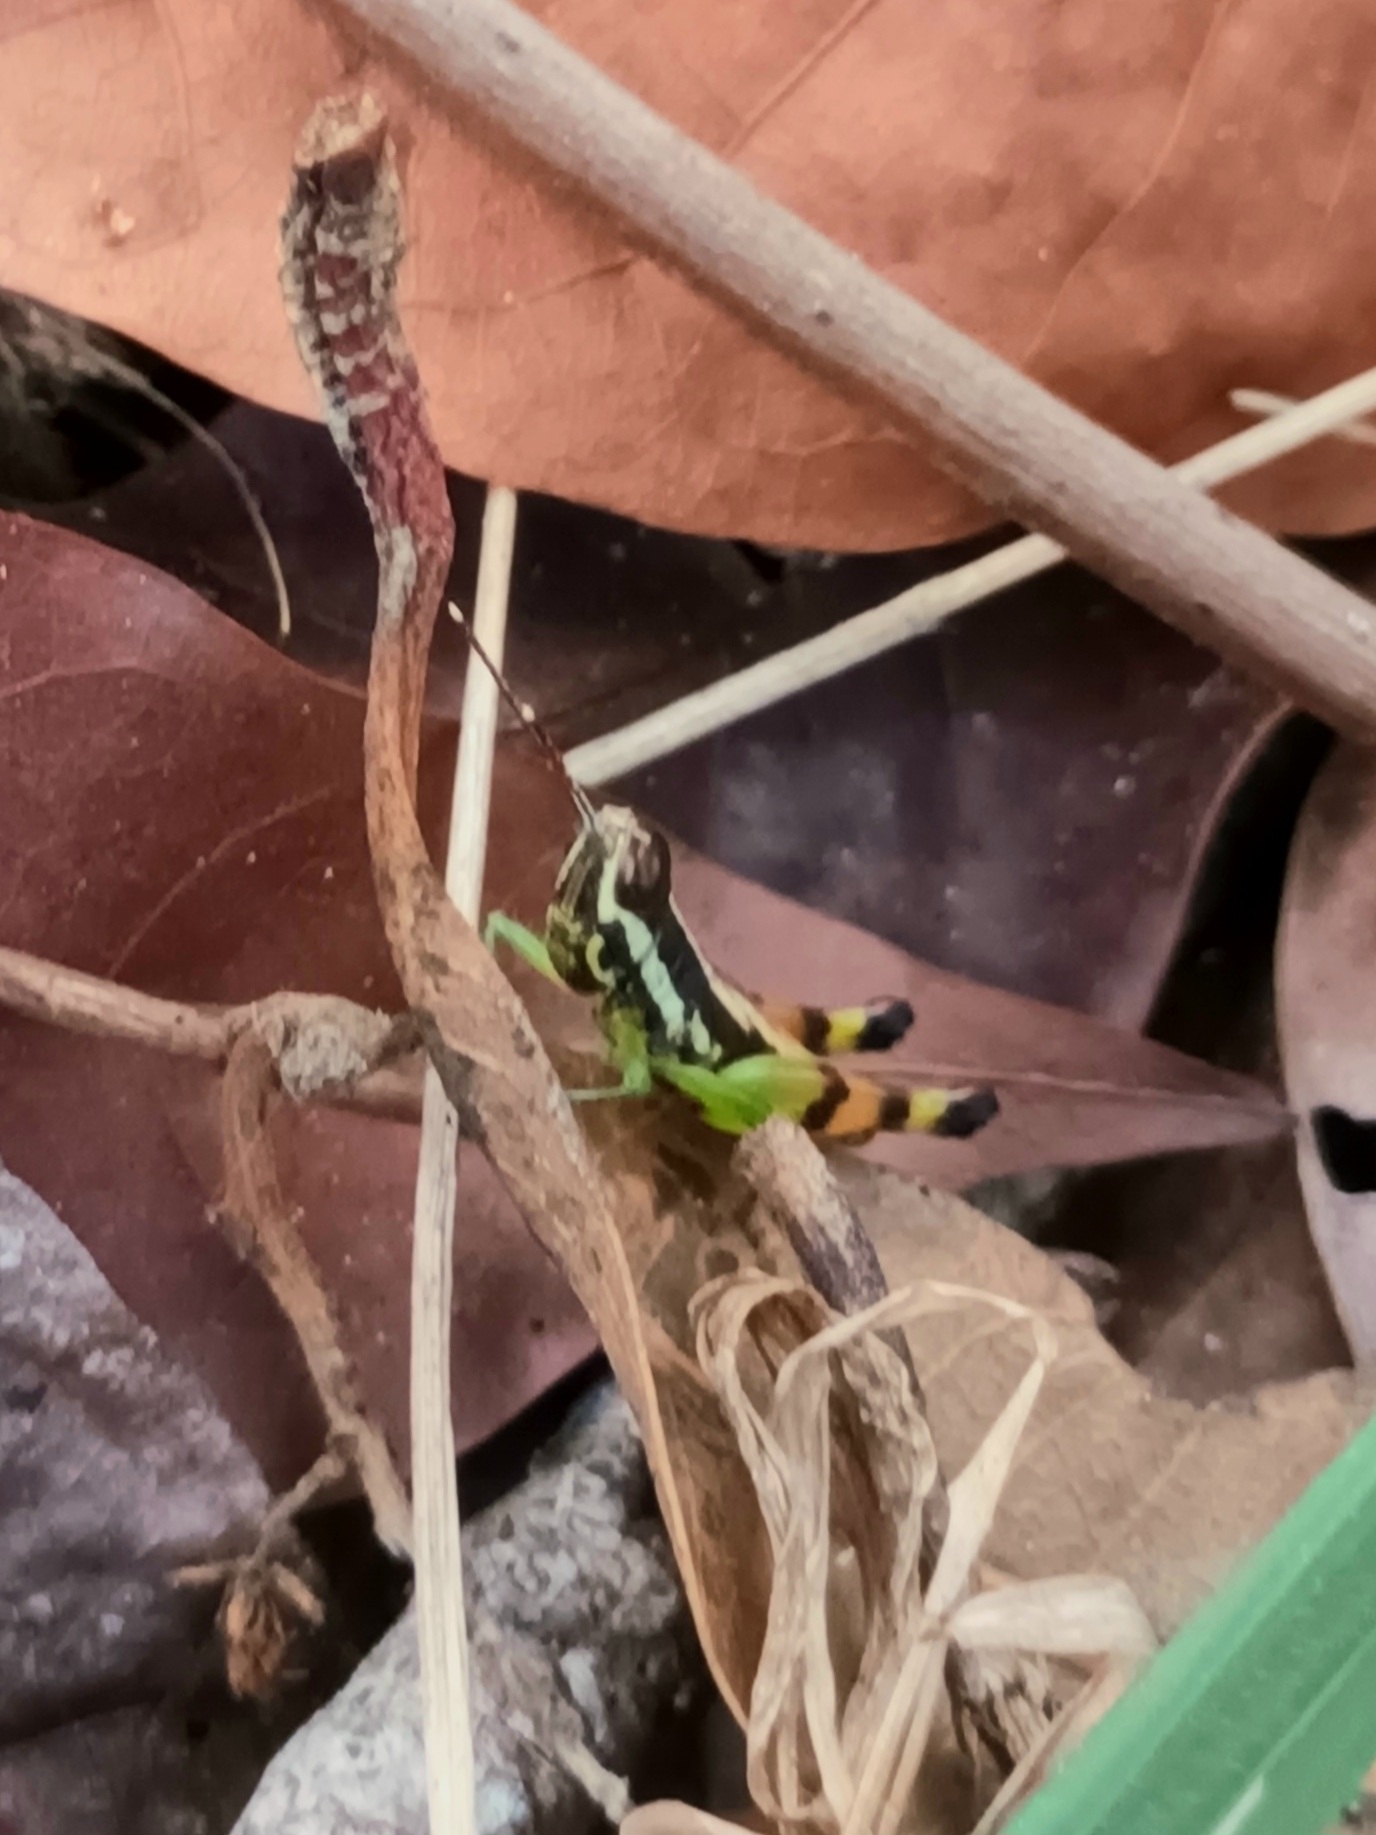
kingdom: Animalia
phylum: Arthropoda
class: Insecta
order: Orthoptera
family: Acrididae
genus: Chitaura
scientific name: Chitaura indica
